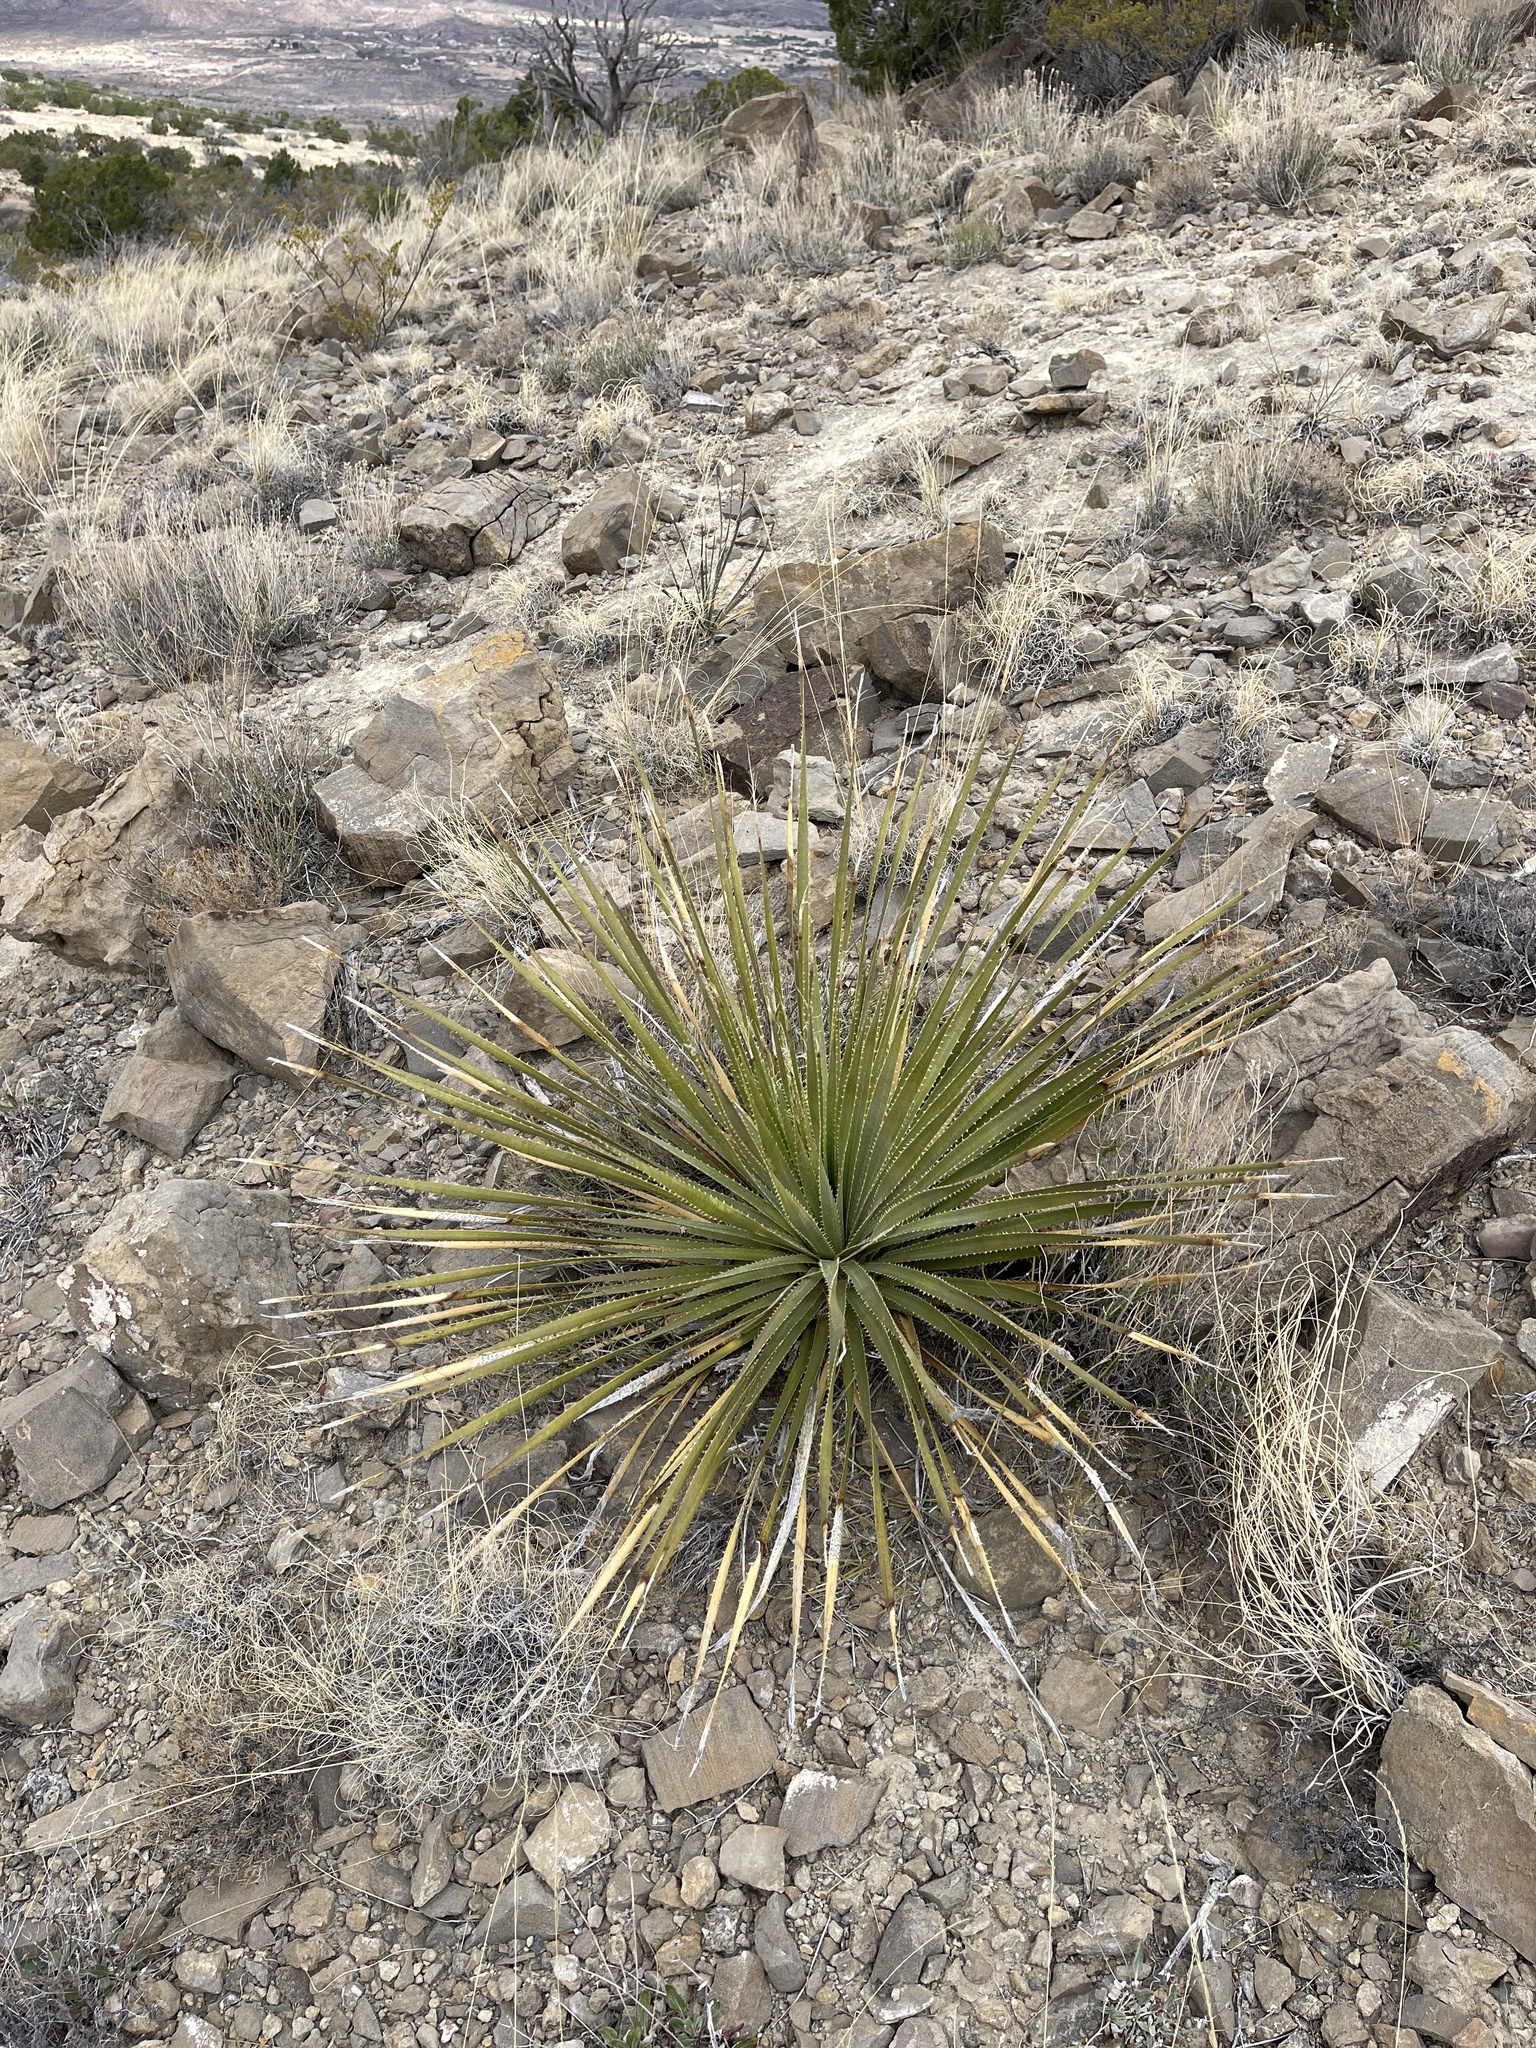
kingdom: Plantae
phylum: Tracheophyta
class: Liliopsida
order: Asparagales
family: Asparagaceae
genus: Dasylirion
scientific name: Dasylirion wheeleri
